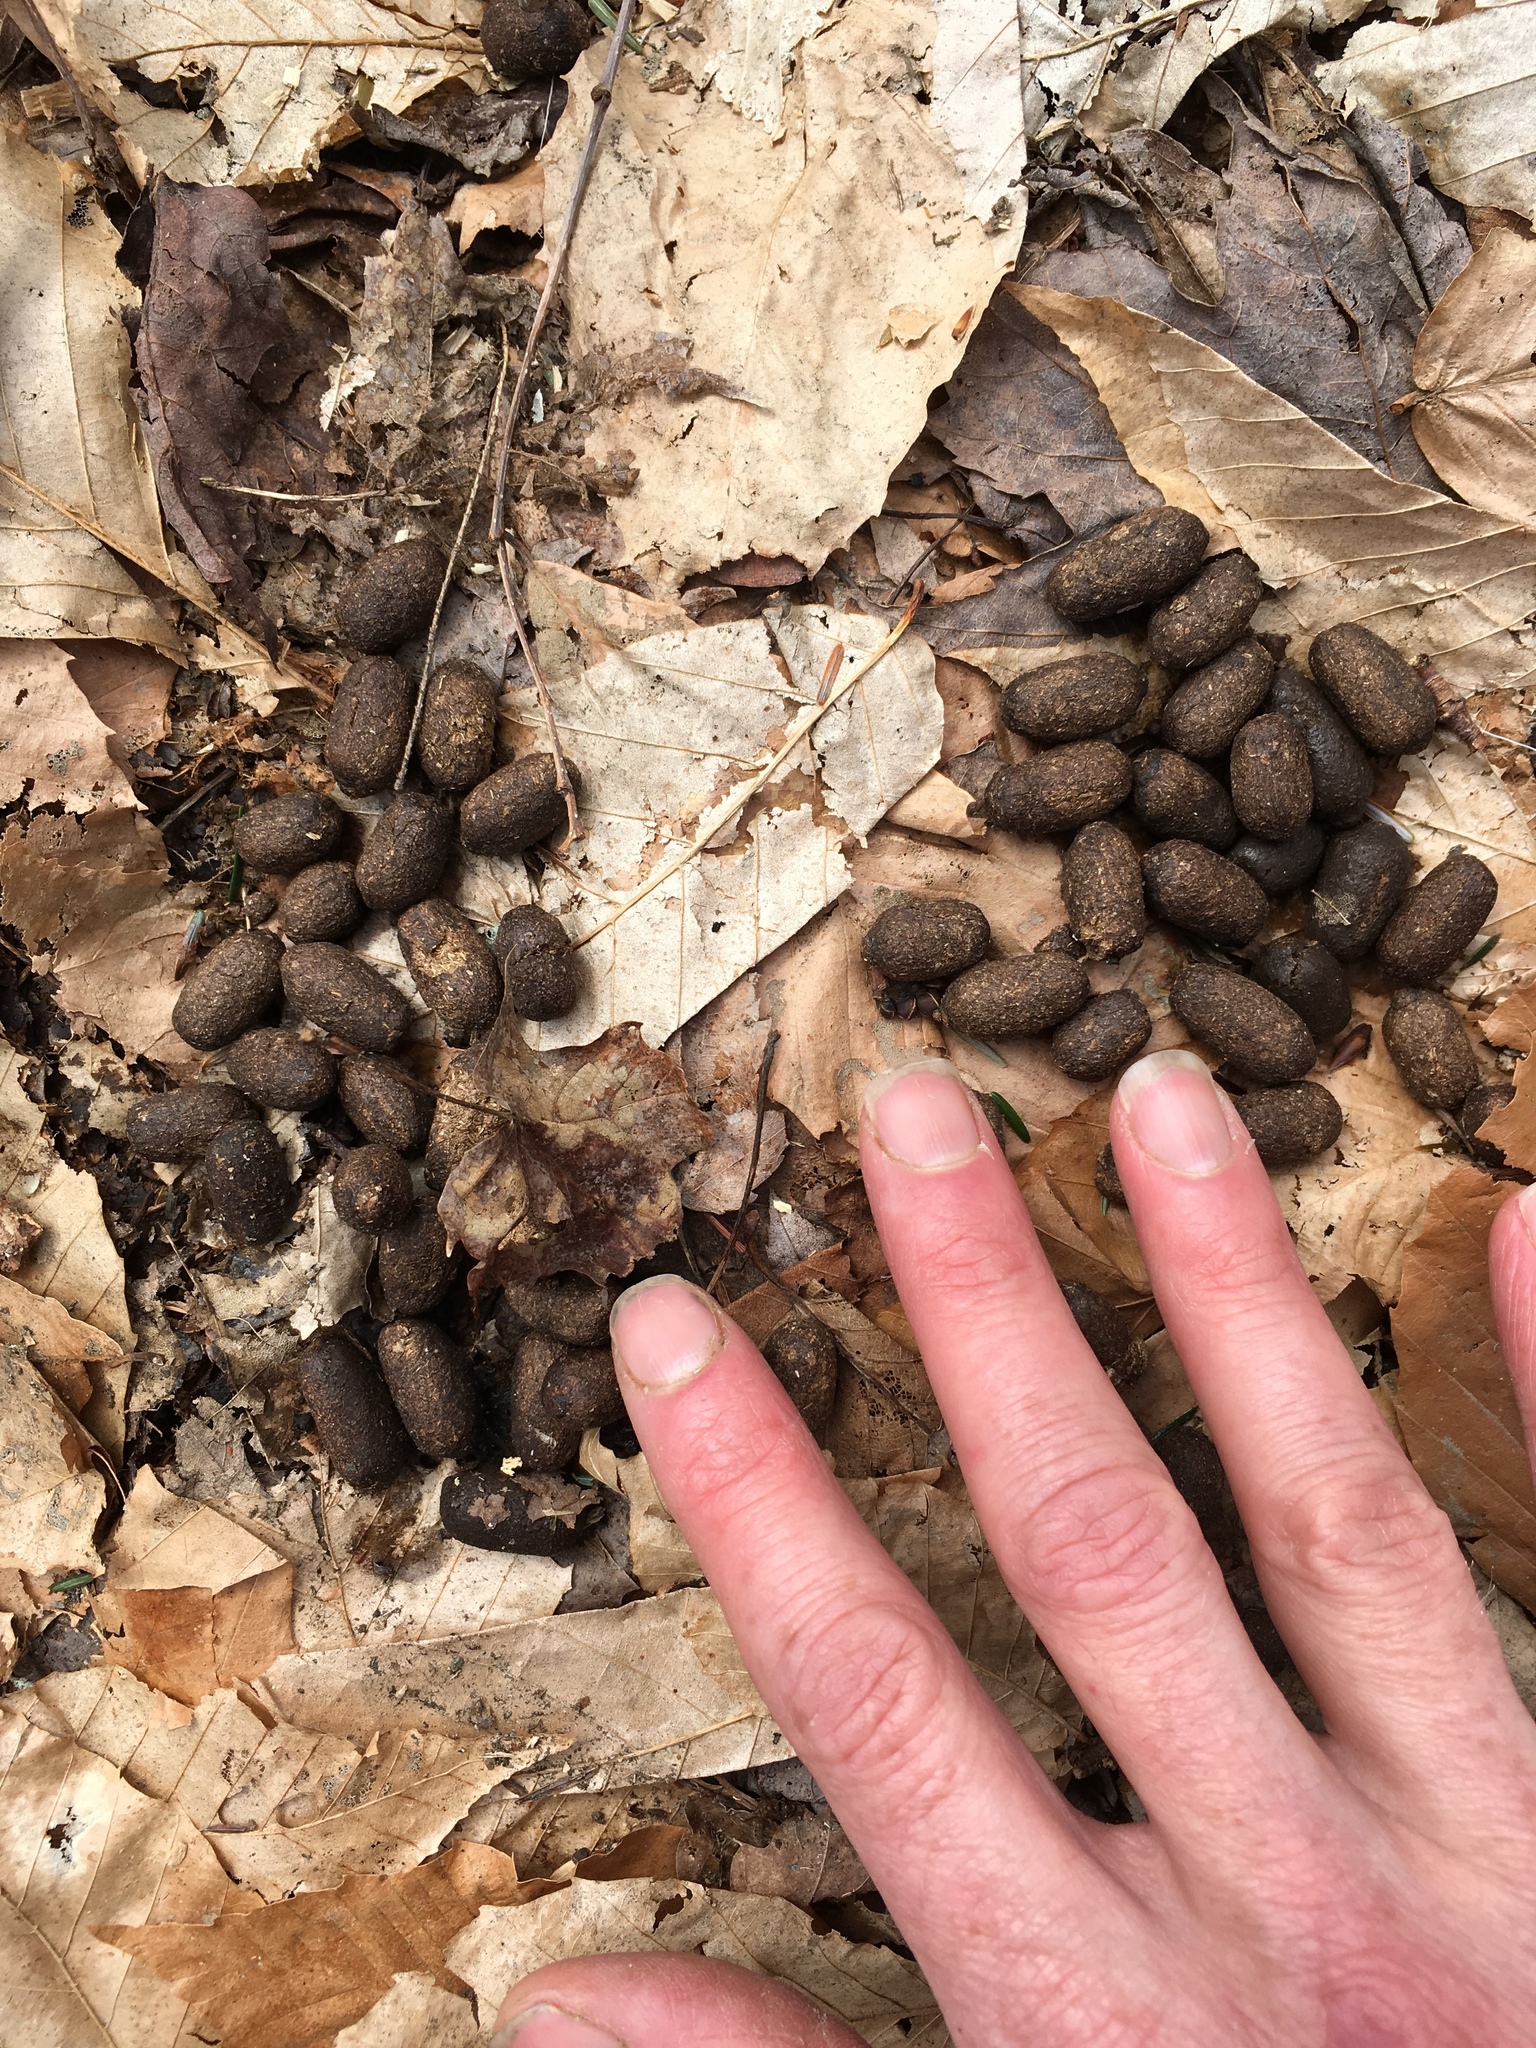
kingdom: Animalia
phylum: Chordata
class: Mammalia
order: Artiodactyla
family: Cervidae
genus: Odocoileus
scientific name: Odocoileus virginianus
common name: White-tailed deer
